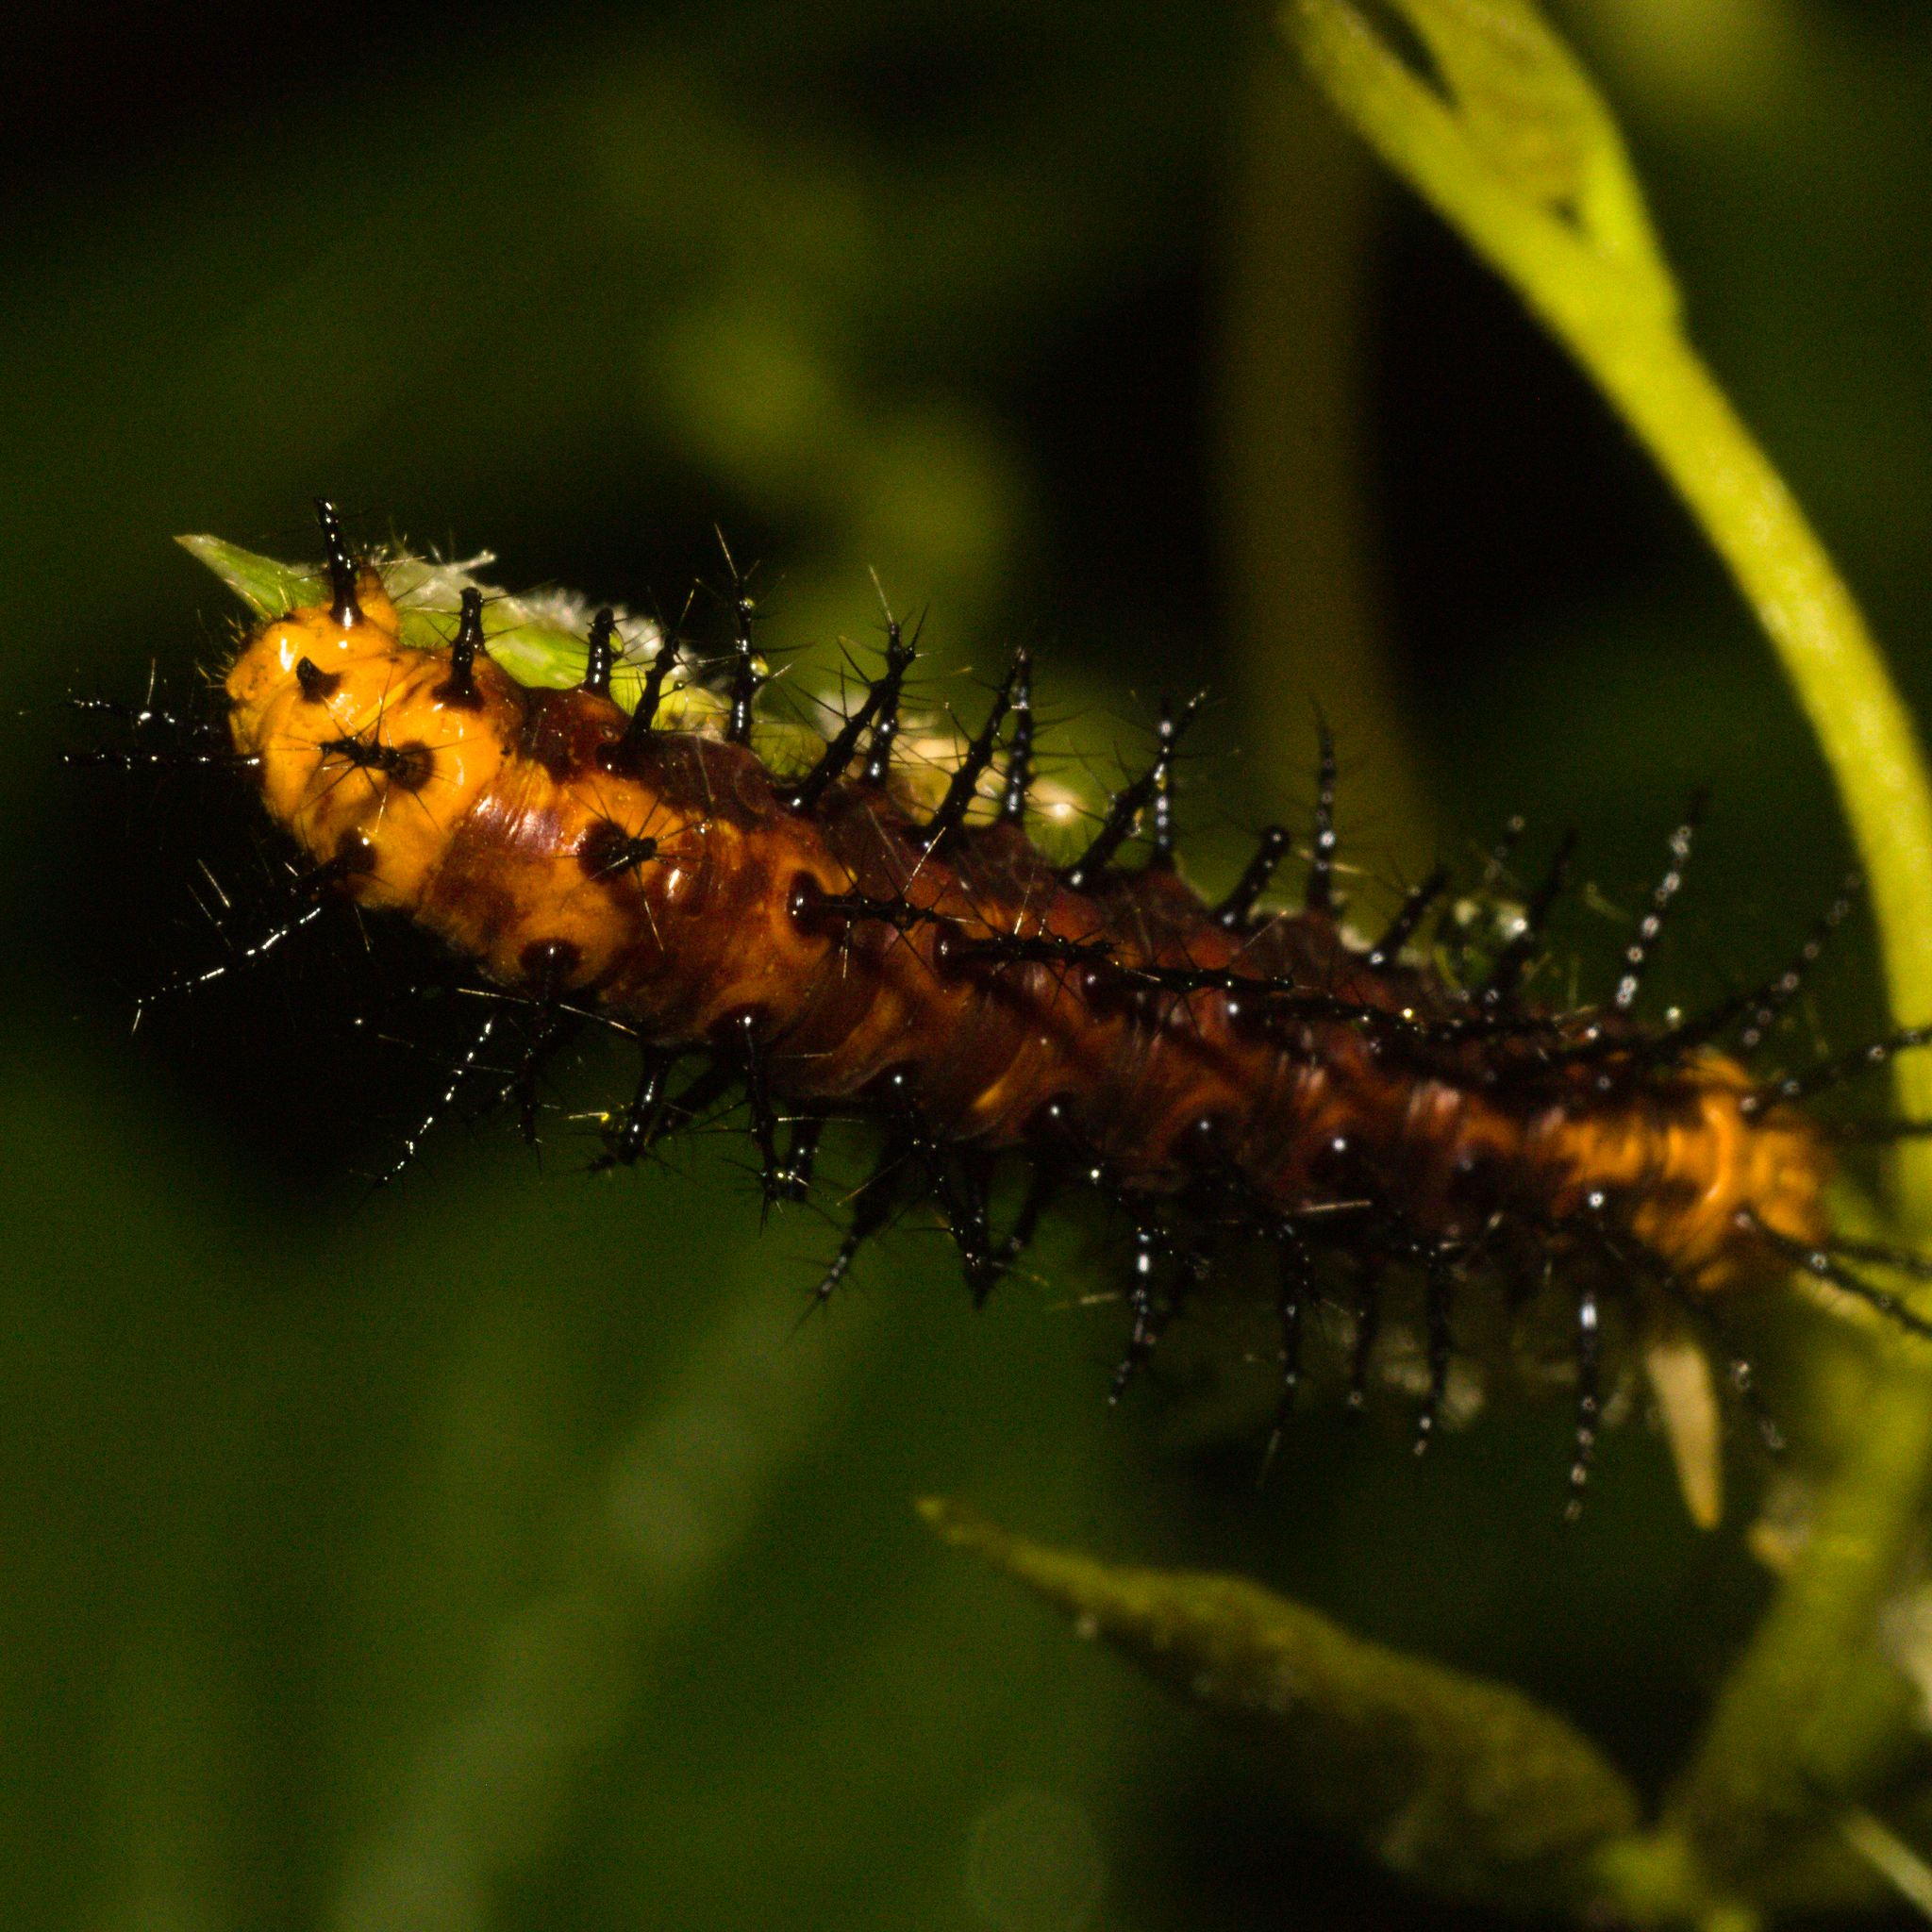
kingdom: Animalia
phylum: Arthropoda
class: Insecta
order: Lepidoptera
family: Nymphalidae
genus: Acraea
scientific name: Acraea terpsicore
